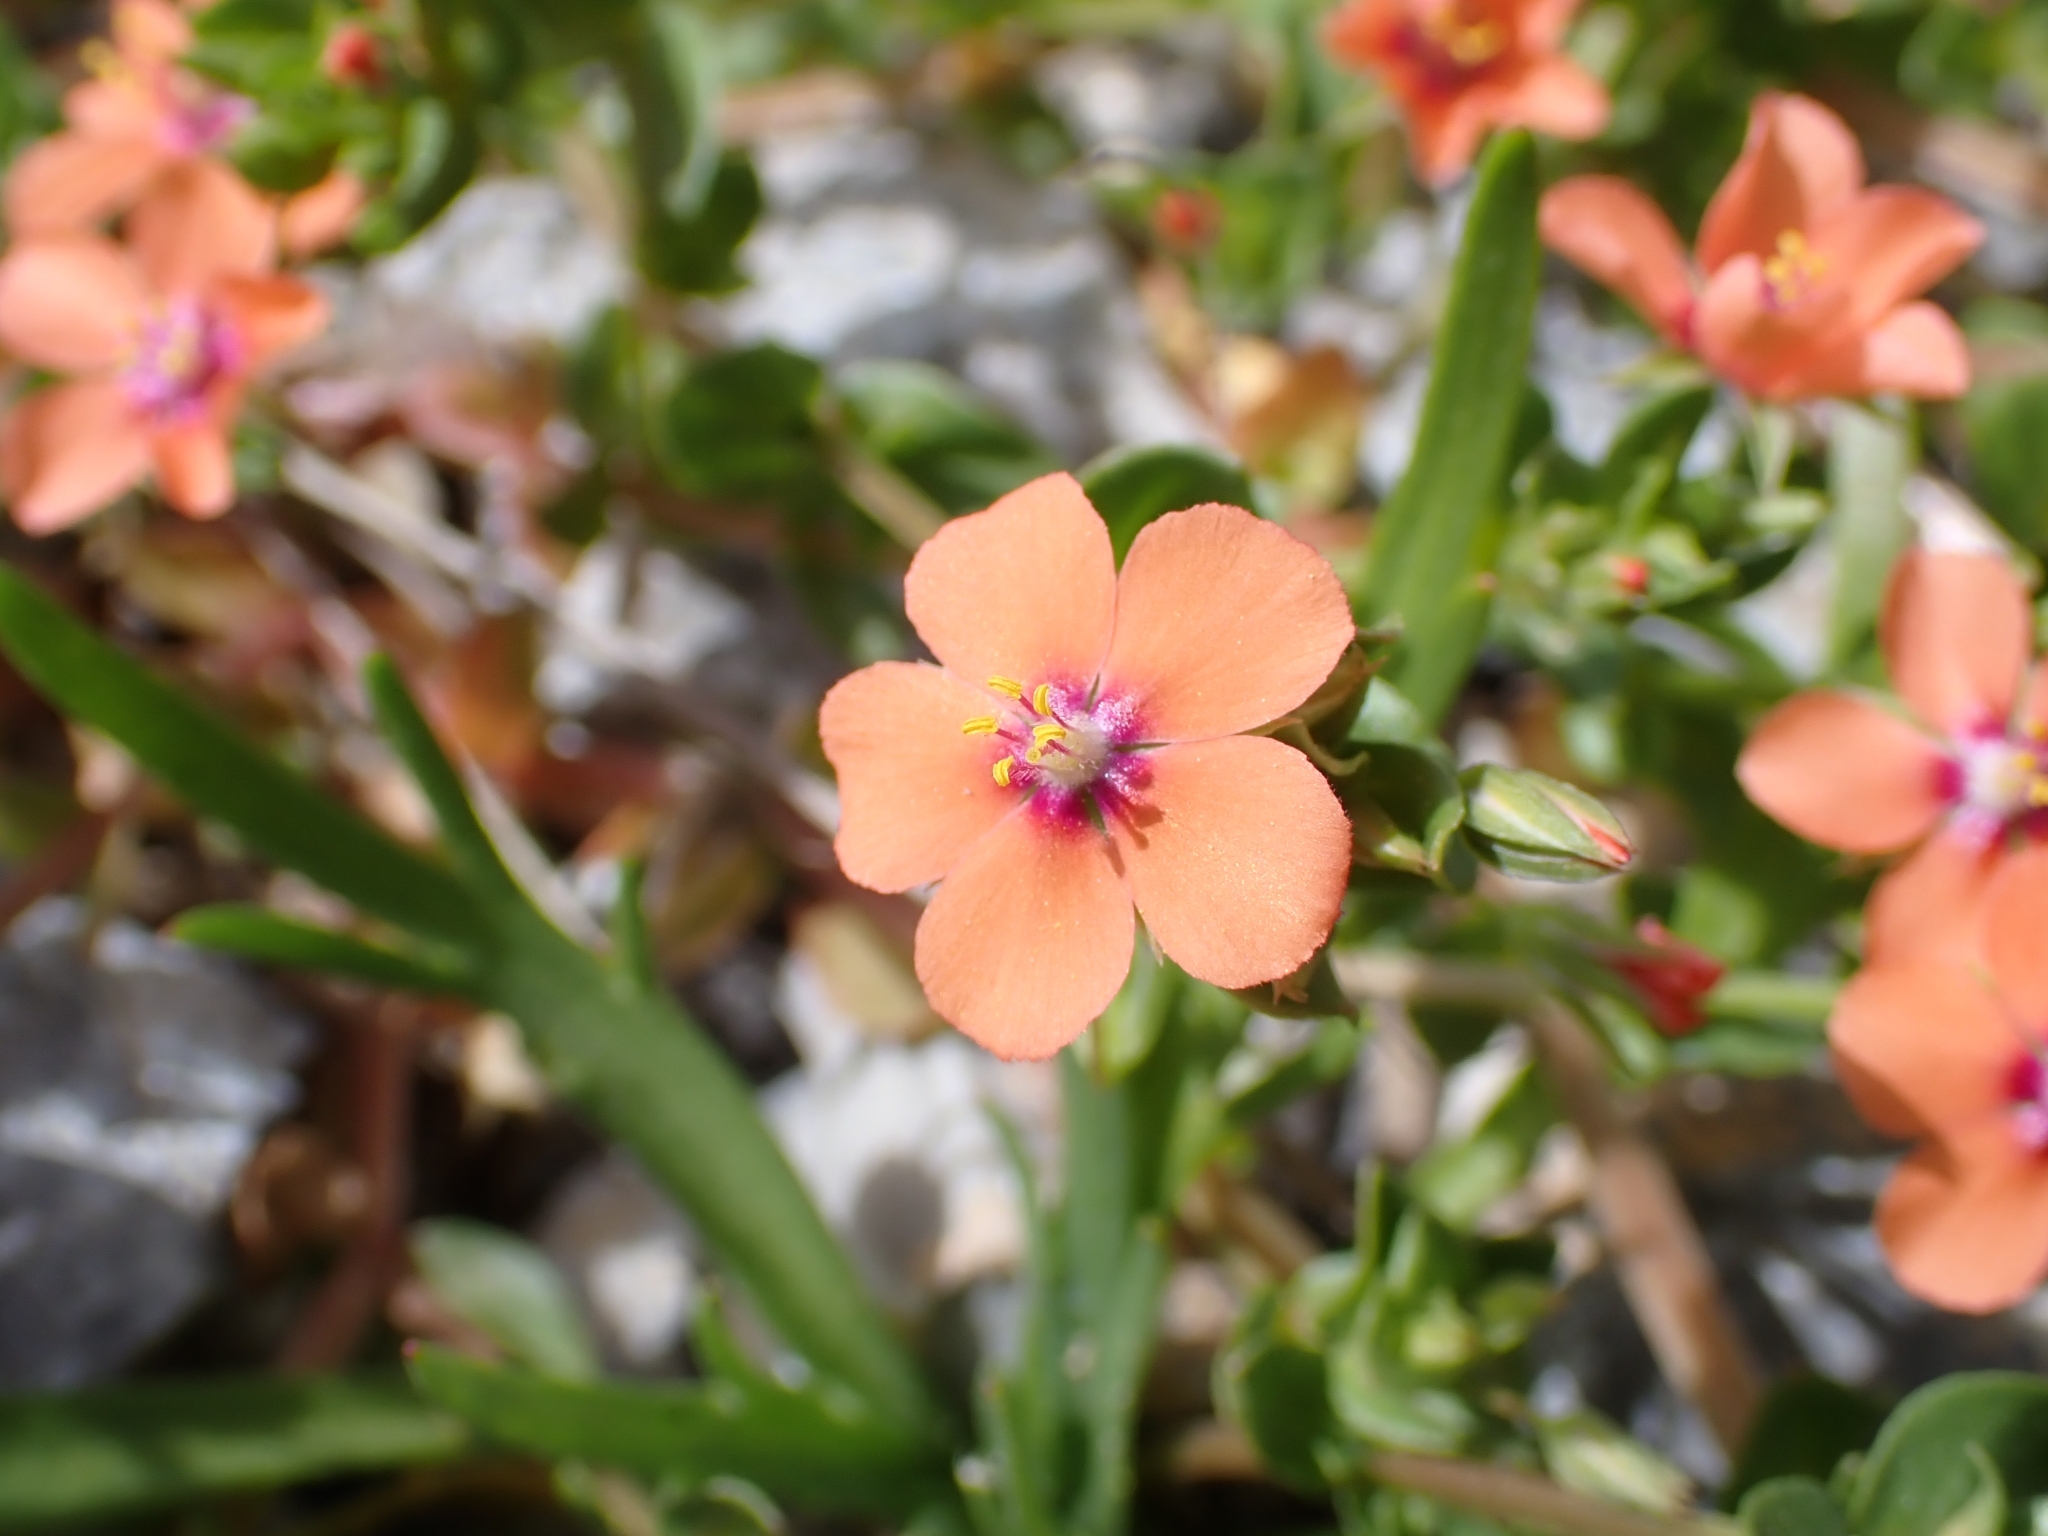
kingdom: Plantae
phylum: Tracheophyta
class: Magnoliopsida
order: Ericales
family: Primulaceae
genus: Lysimachia
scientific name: Lysimachia arvensis
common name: Scarlet pimpernel
